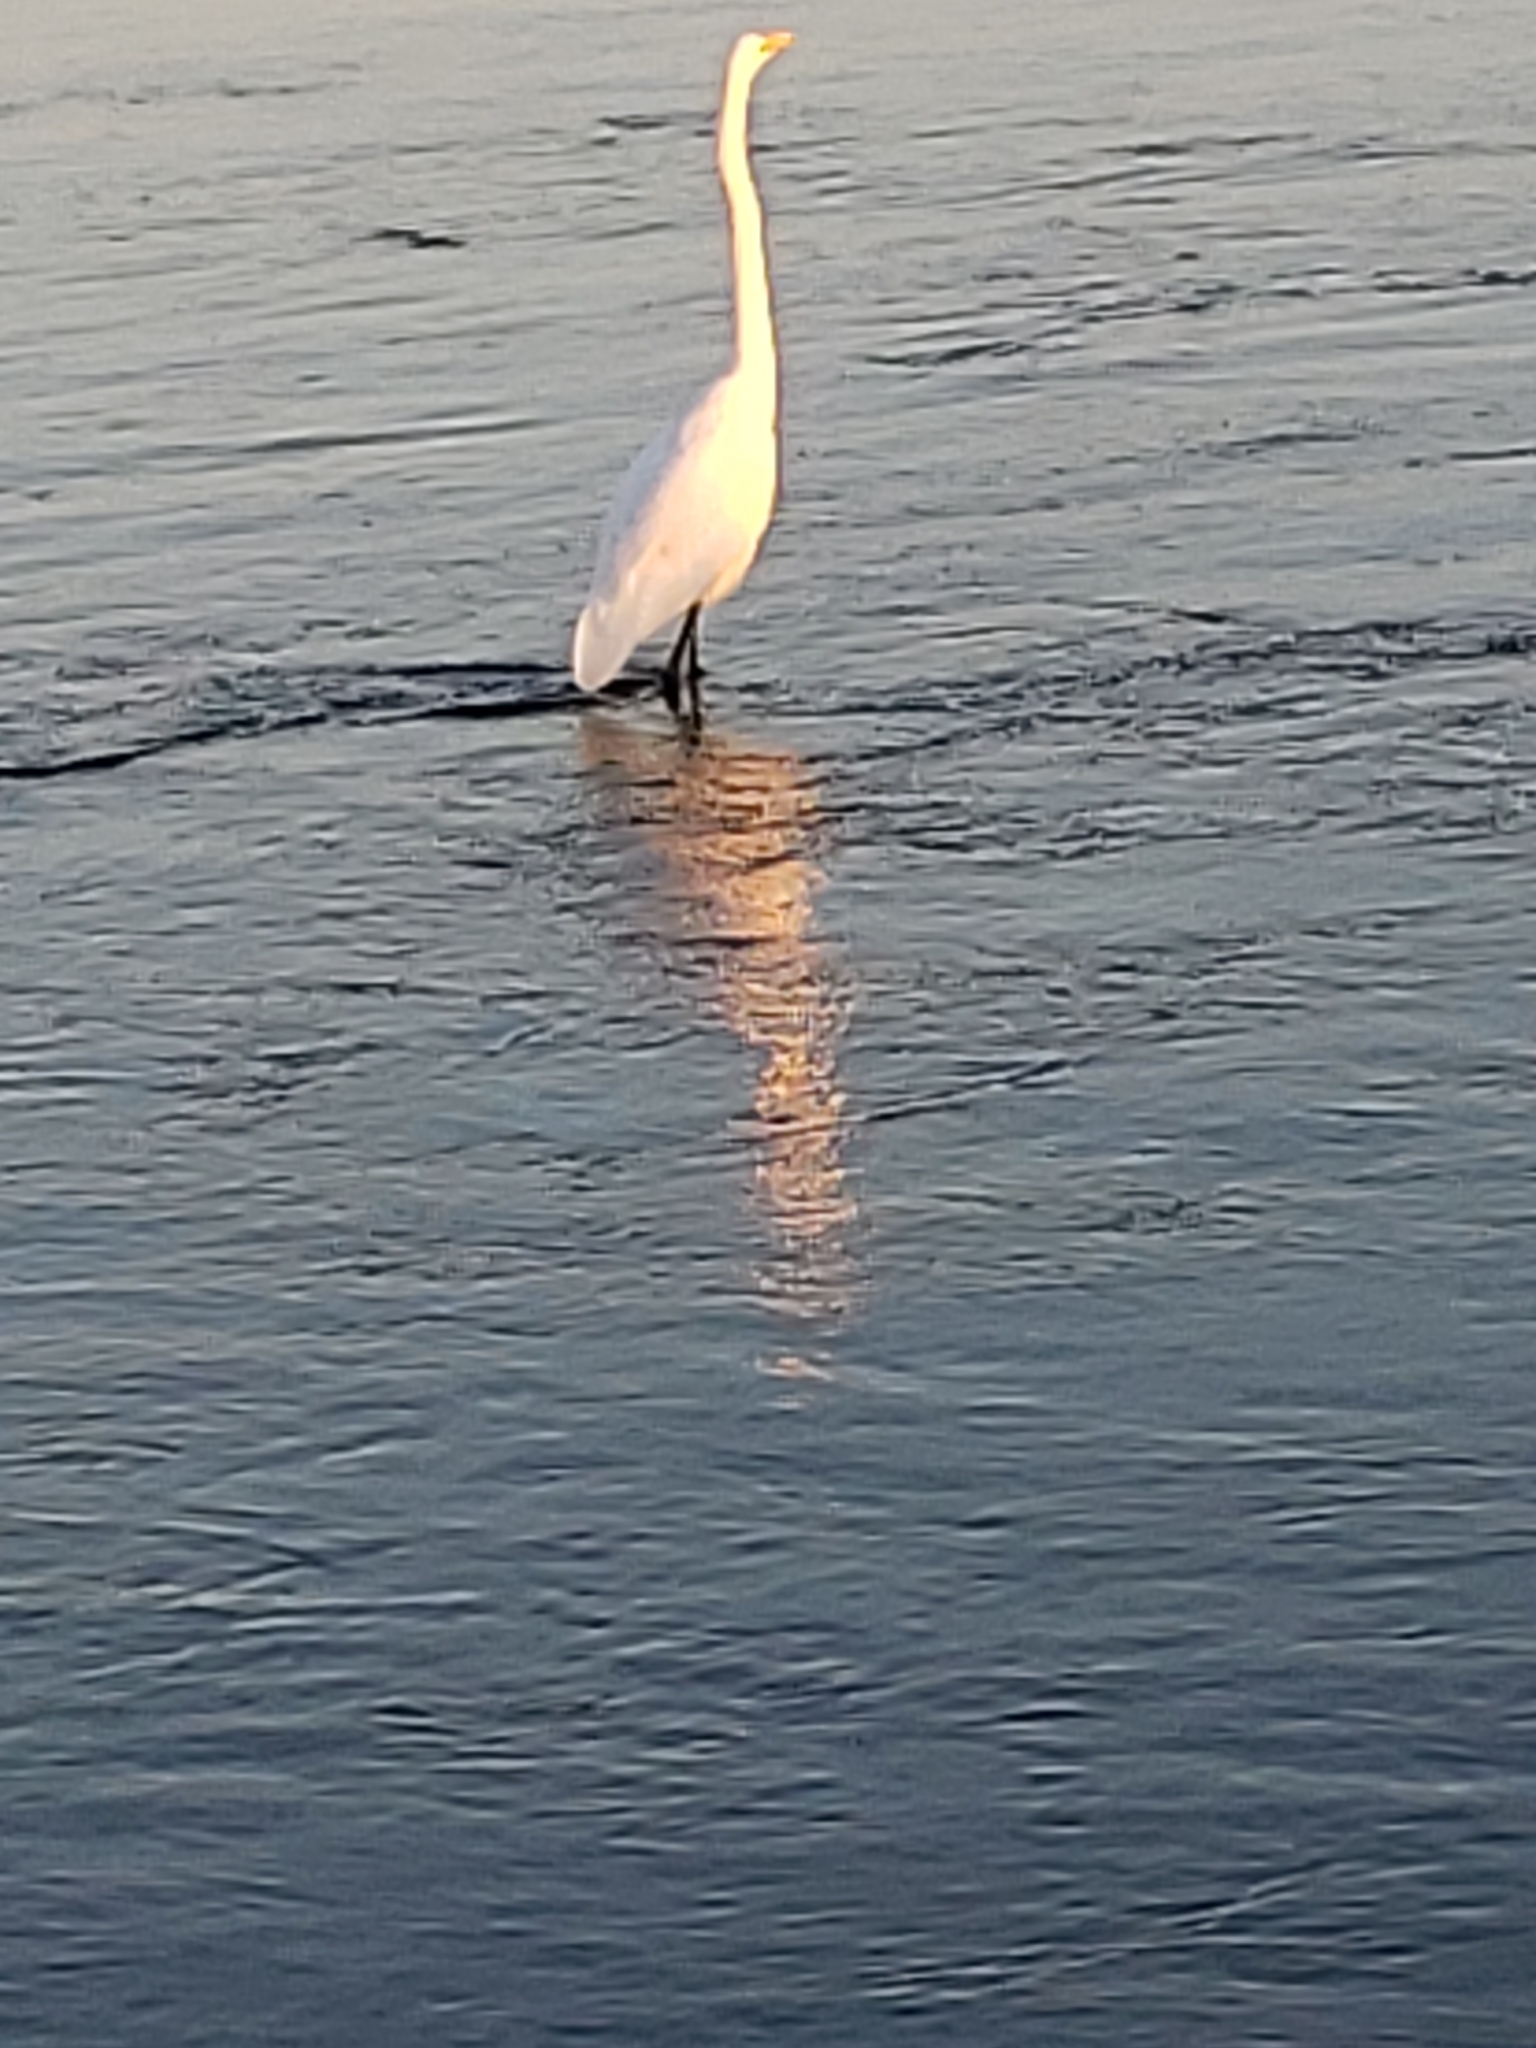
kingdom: Animalia
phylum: Chordata
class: Aves
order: Pelecaniformes
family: Ardeidae
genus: Ardea
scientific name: Ardea alba
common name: Great egret
